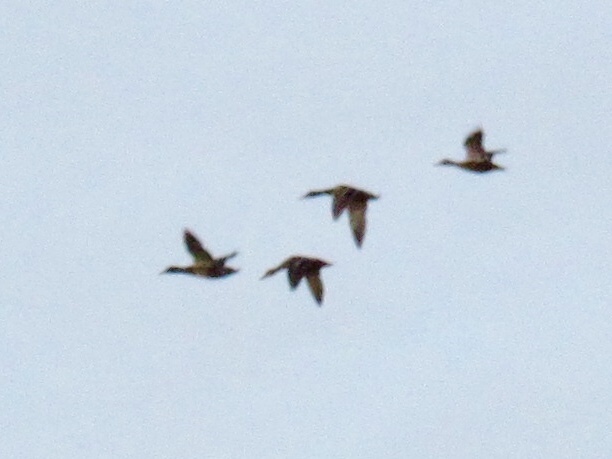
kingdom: Animalia
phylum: Chordata
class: Aves
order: Anseriformes
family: Anatidae
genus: Anas
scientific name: Anas platyrhynchos
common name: Mallard
